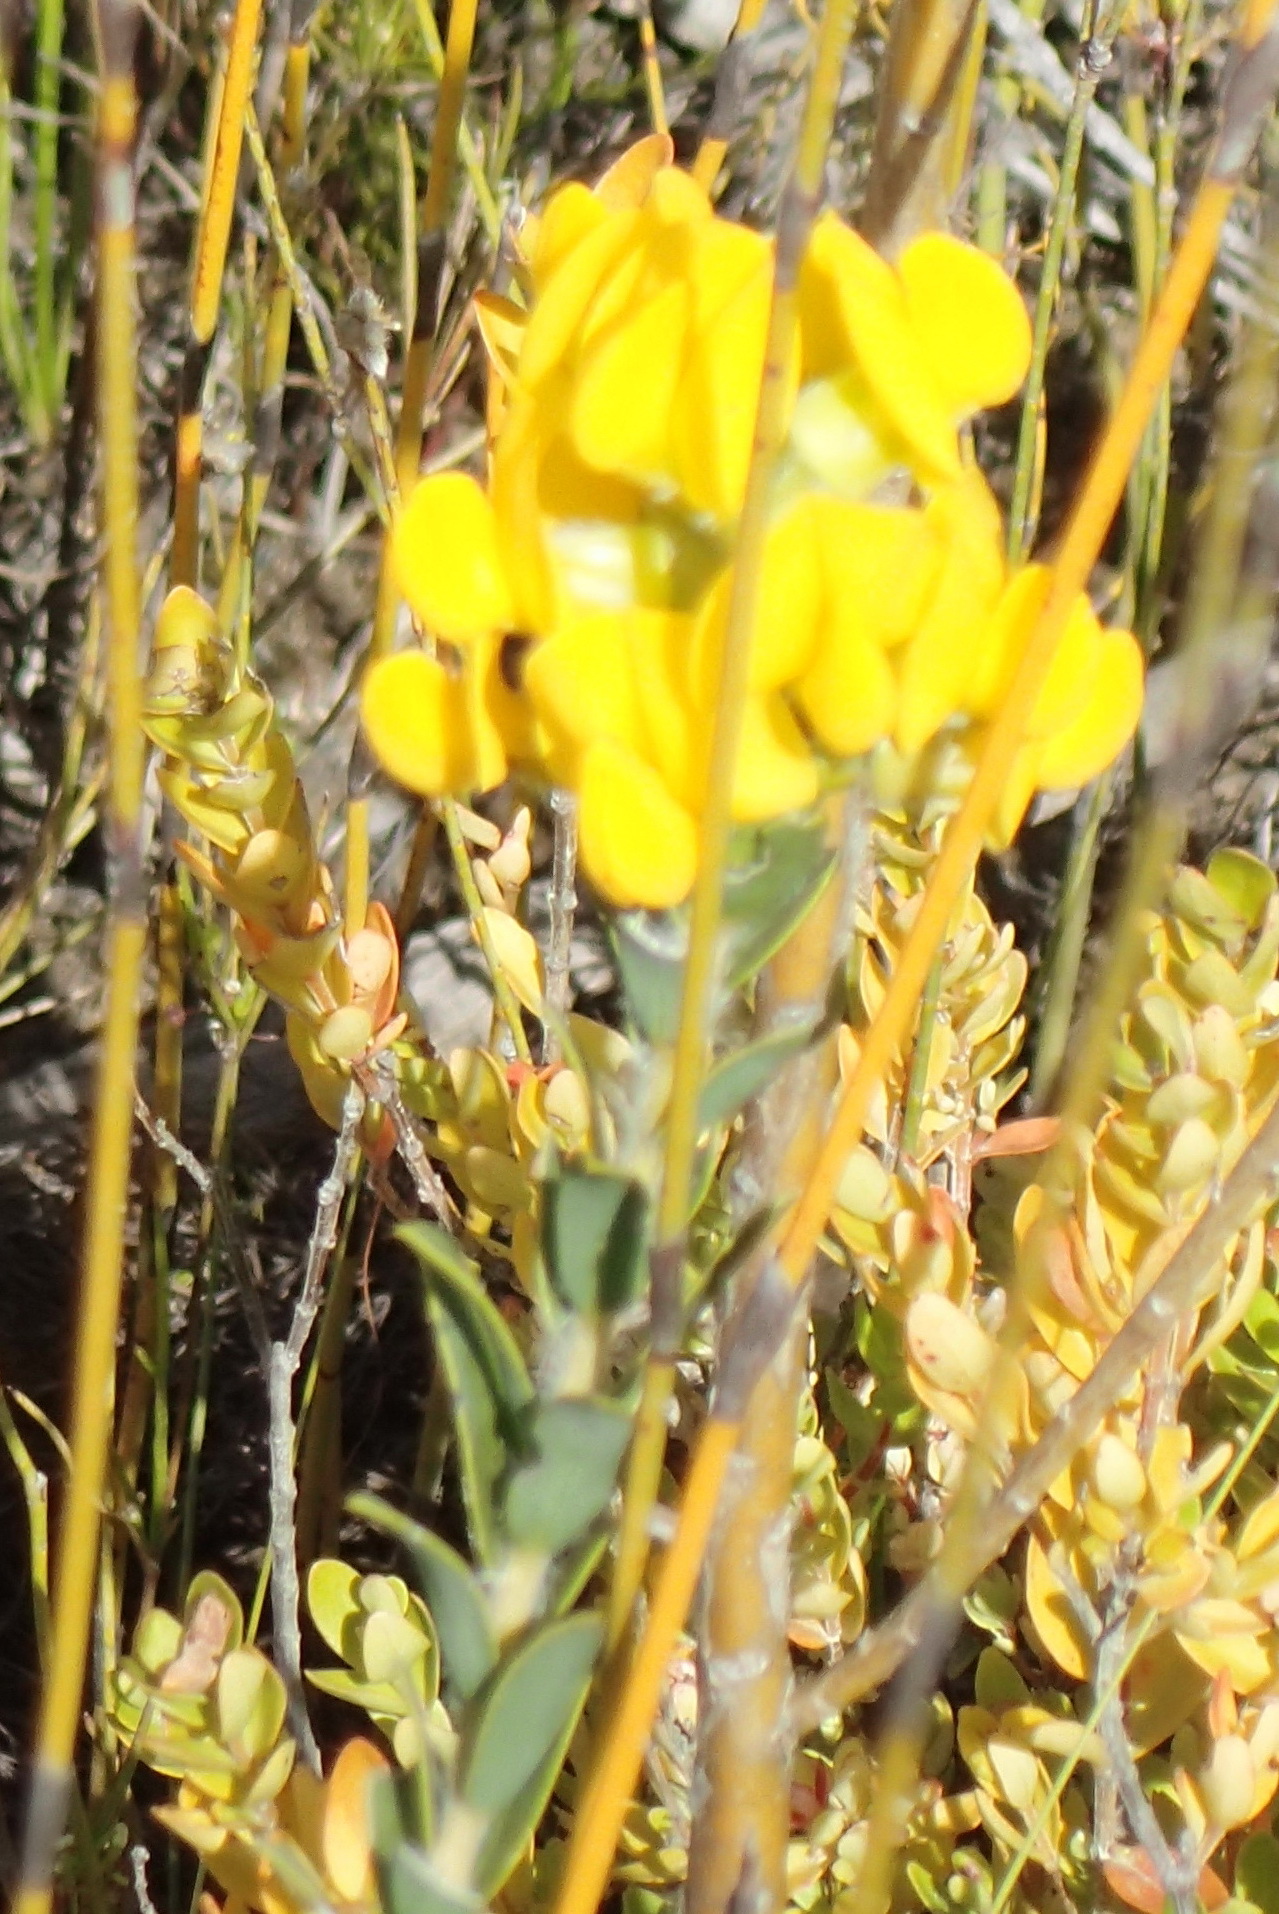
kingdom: Plantae
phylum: Tracheophyta
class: Magnoliopsida
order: Fabales
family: Fabaceae
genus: Liparia
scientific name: Liparia hirsuta
